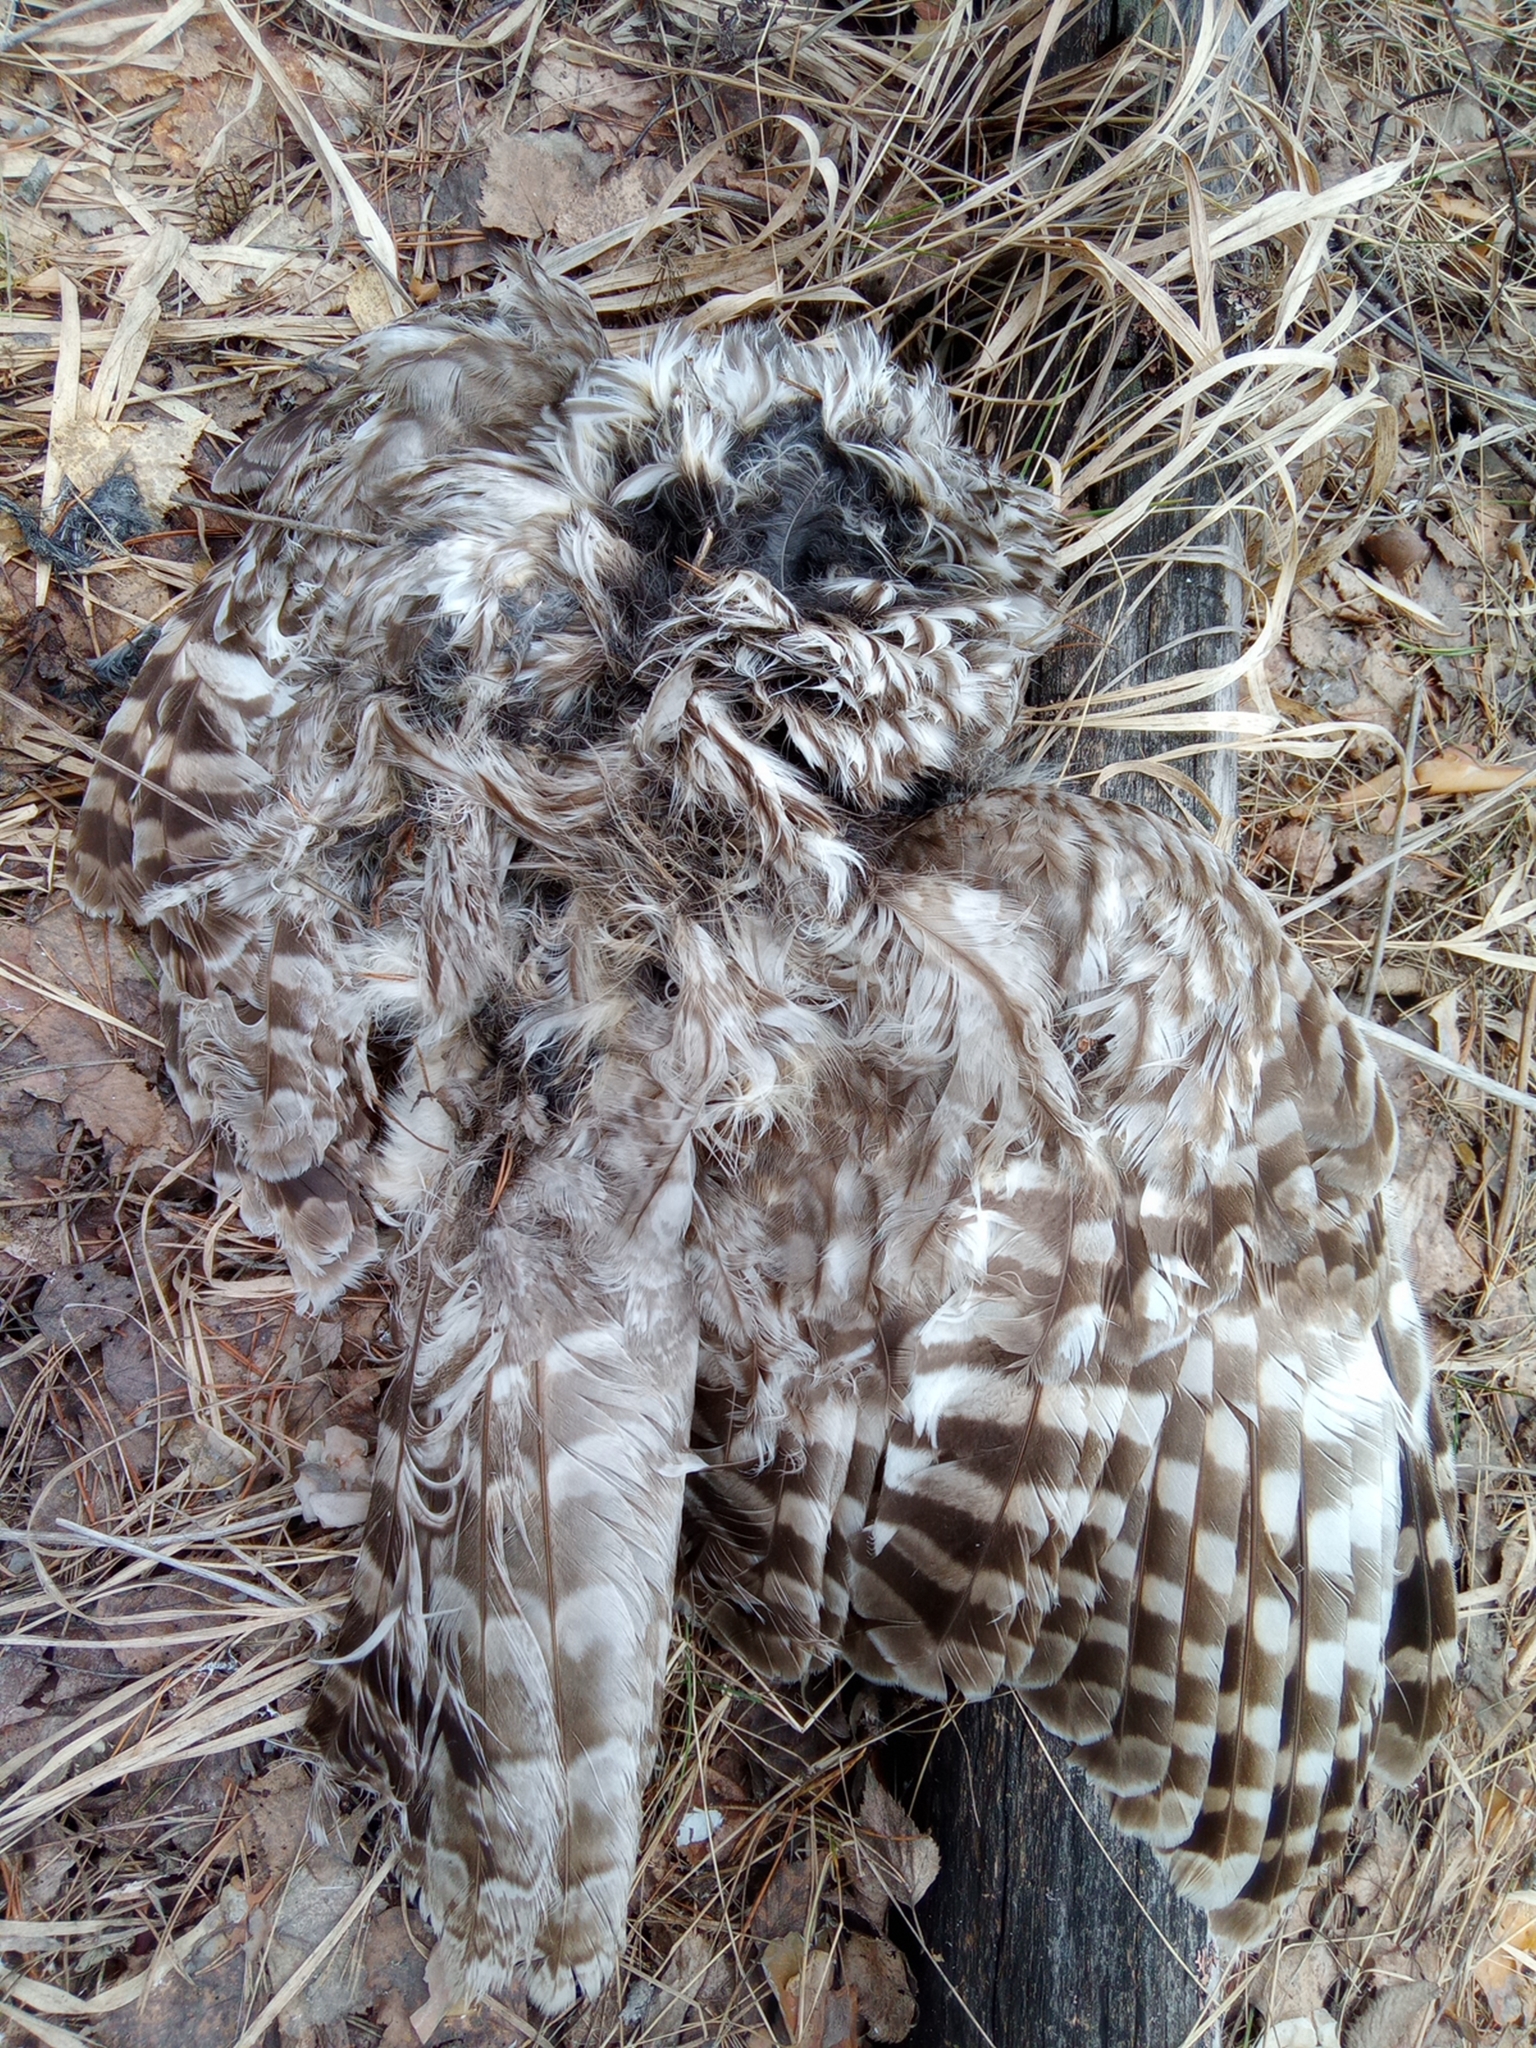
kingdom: Animalia
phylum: Chordata
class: Aves
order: Strigiformes
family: Strigidae
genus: Strix
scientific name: Strix uralensis
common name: Ural owl
